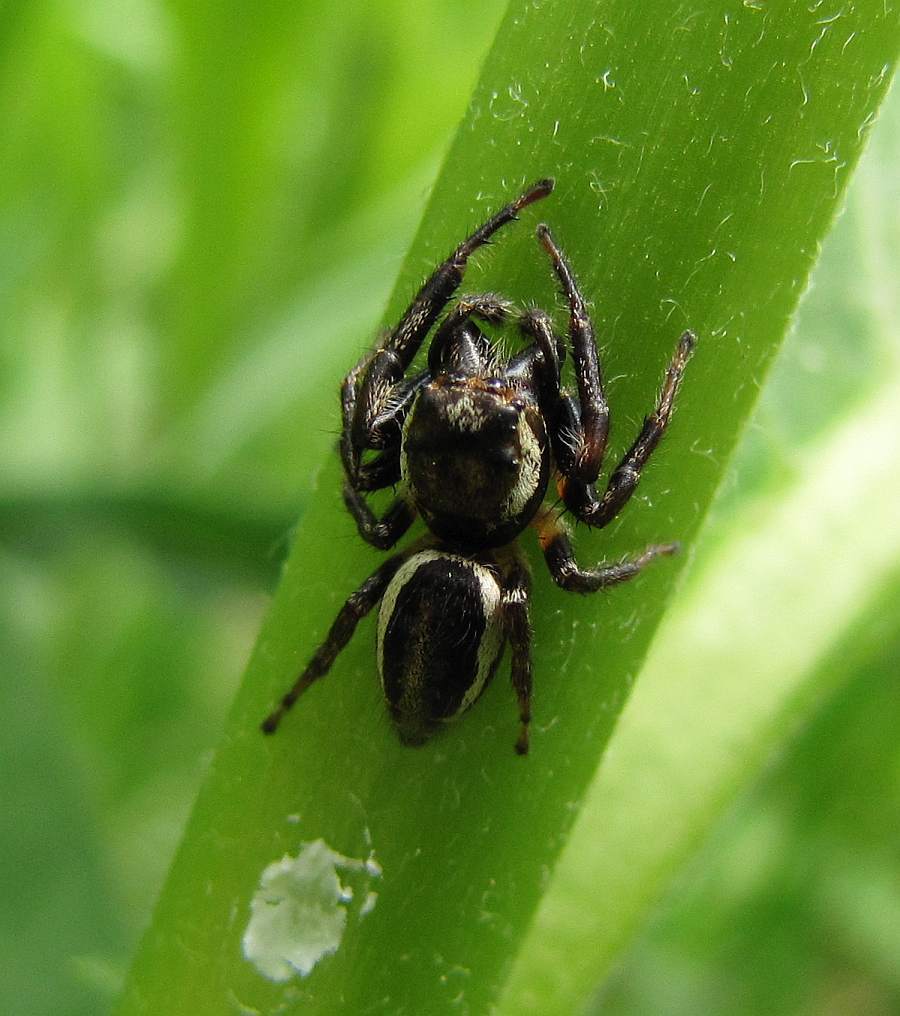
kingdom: Animalia
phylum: Arthropoda
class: Arachnida
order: Araneae
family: Salticidae
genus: Eris
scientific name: Eris militaris
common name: Bronze jumper
